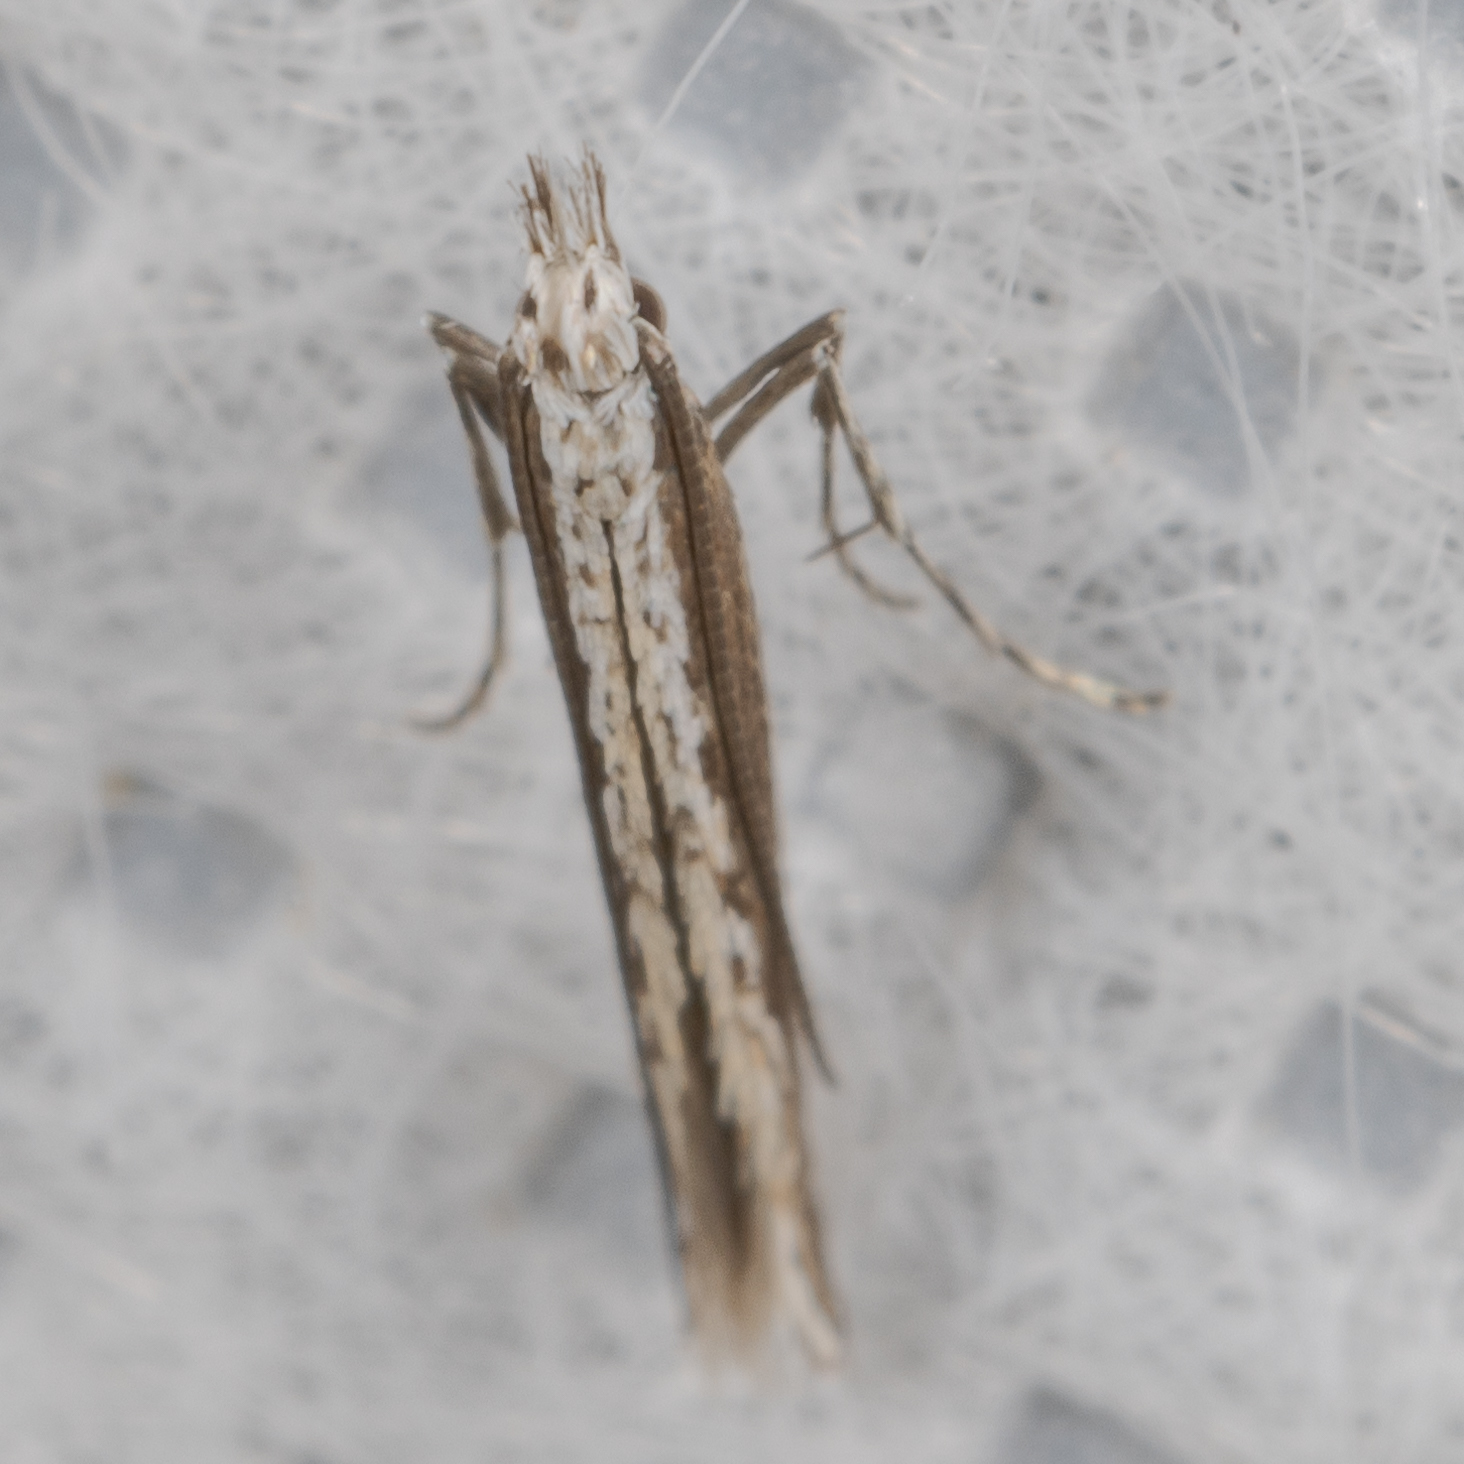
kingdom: Plantae
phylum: Rhodophyta
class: Florideophyceae
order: Gracilariales
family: Gracilariaceae
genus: Gracilaria
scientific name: Gracilaria
